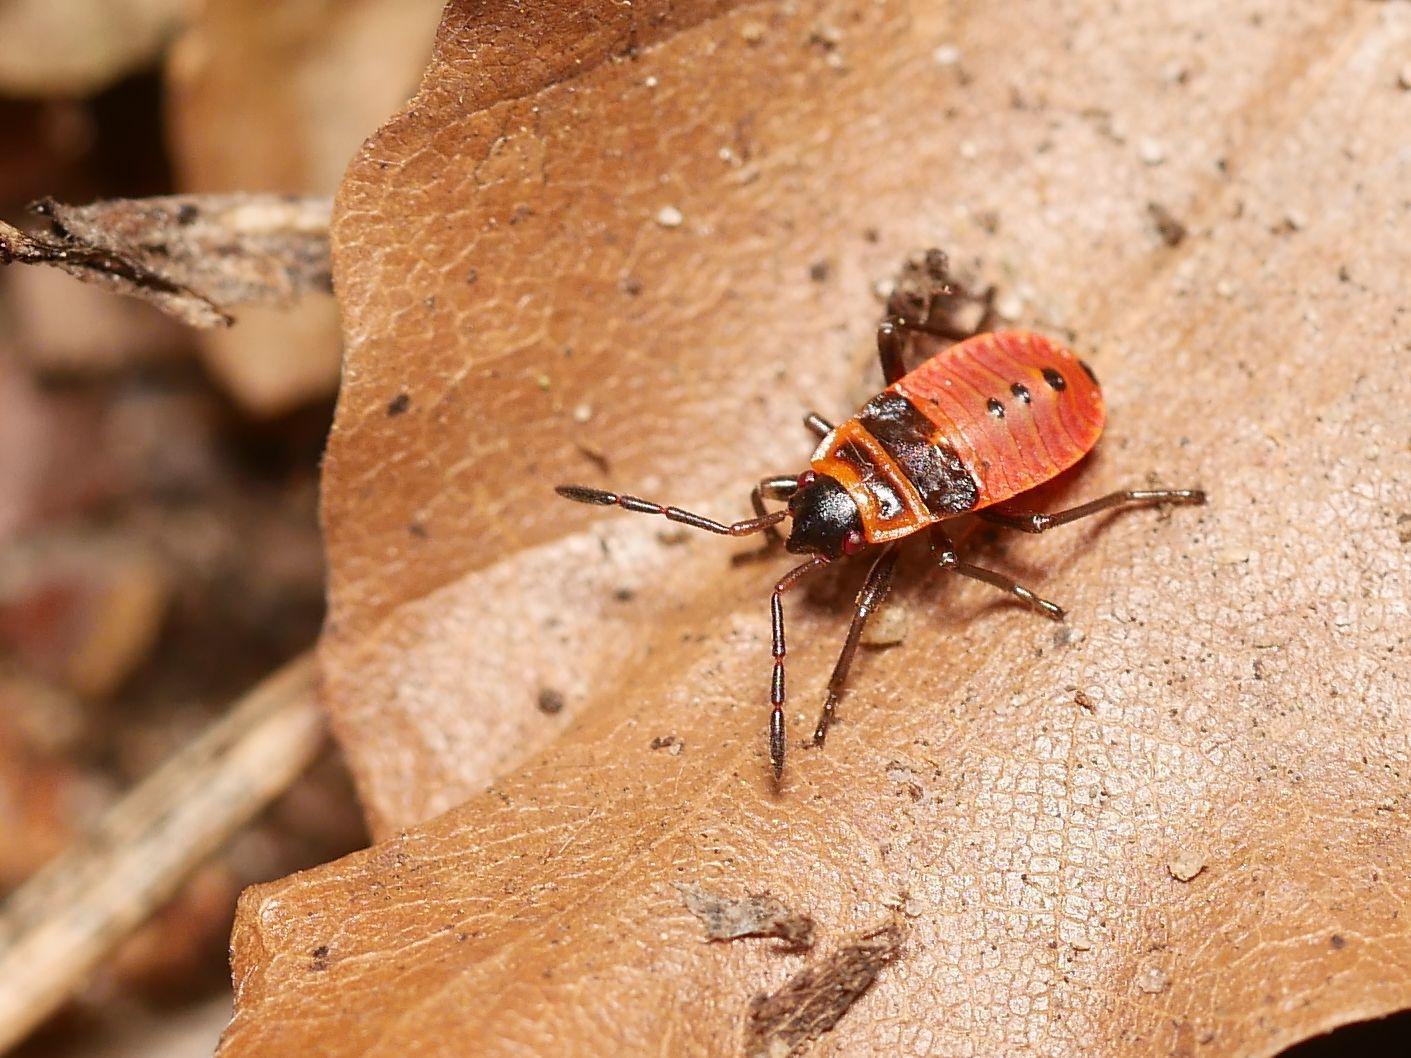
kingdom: Animalia
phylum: Arthropoda
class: Insecta
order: Hemiptera
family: Pyrrhocoridae
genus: Pyrrhocoris
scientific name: Pyrrhocoris apterus
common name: Firebug
